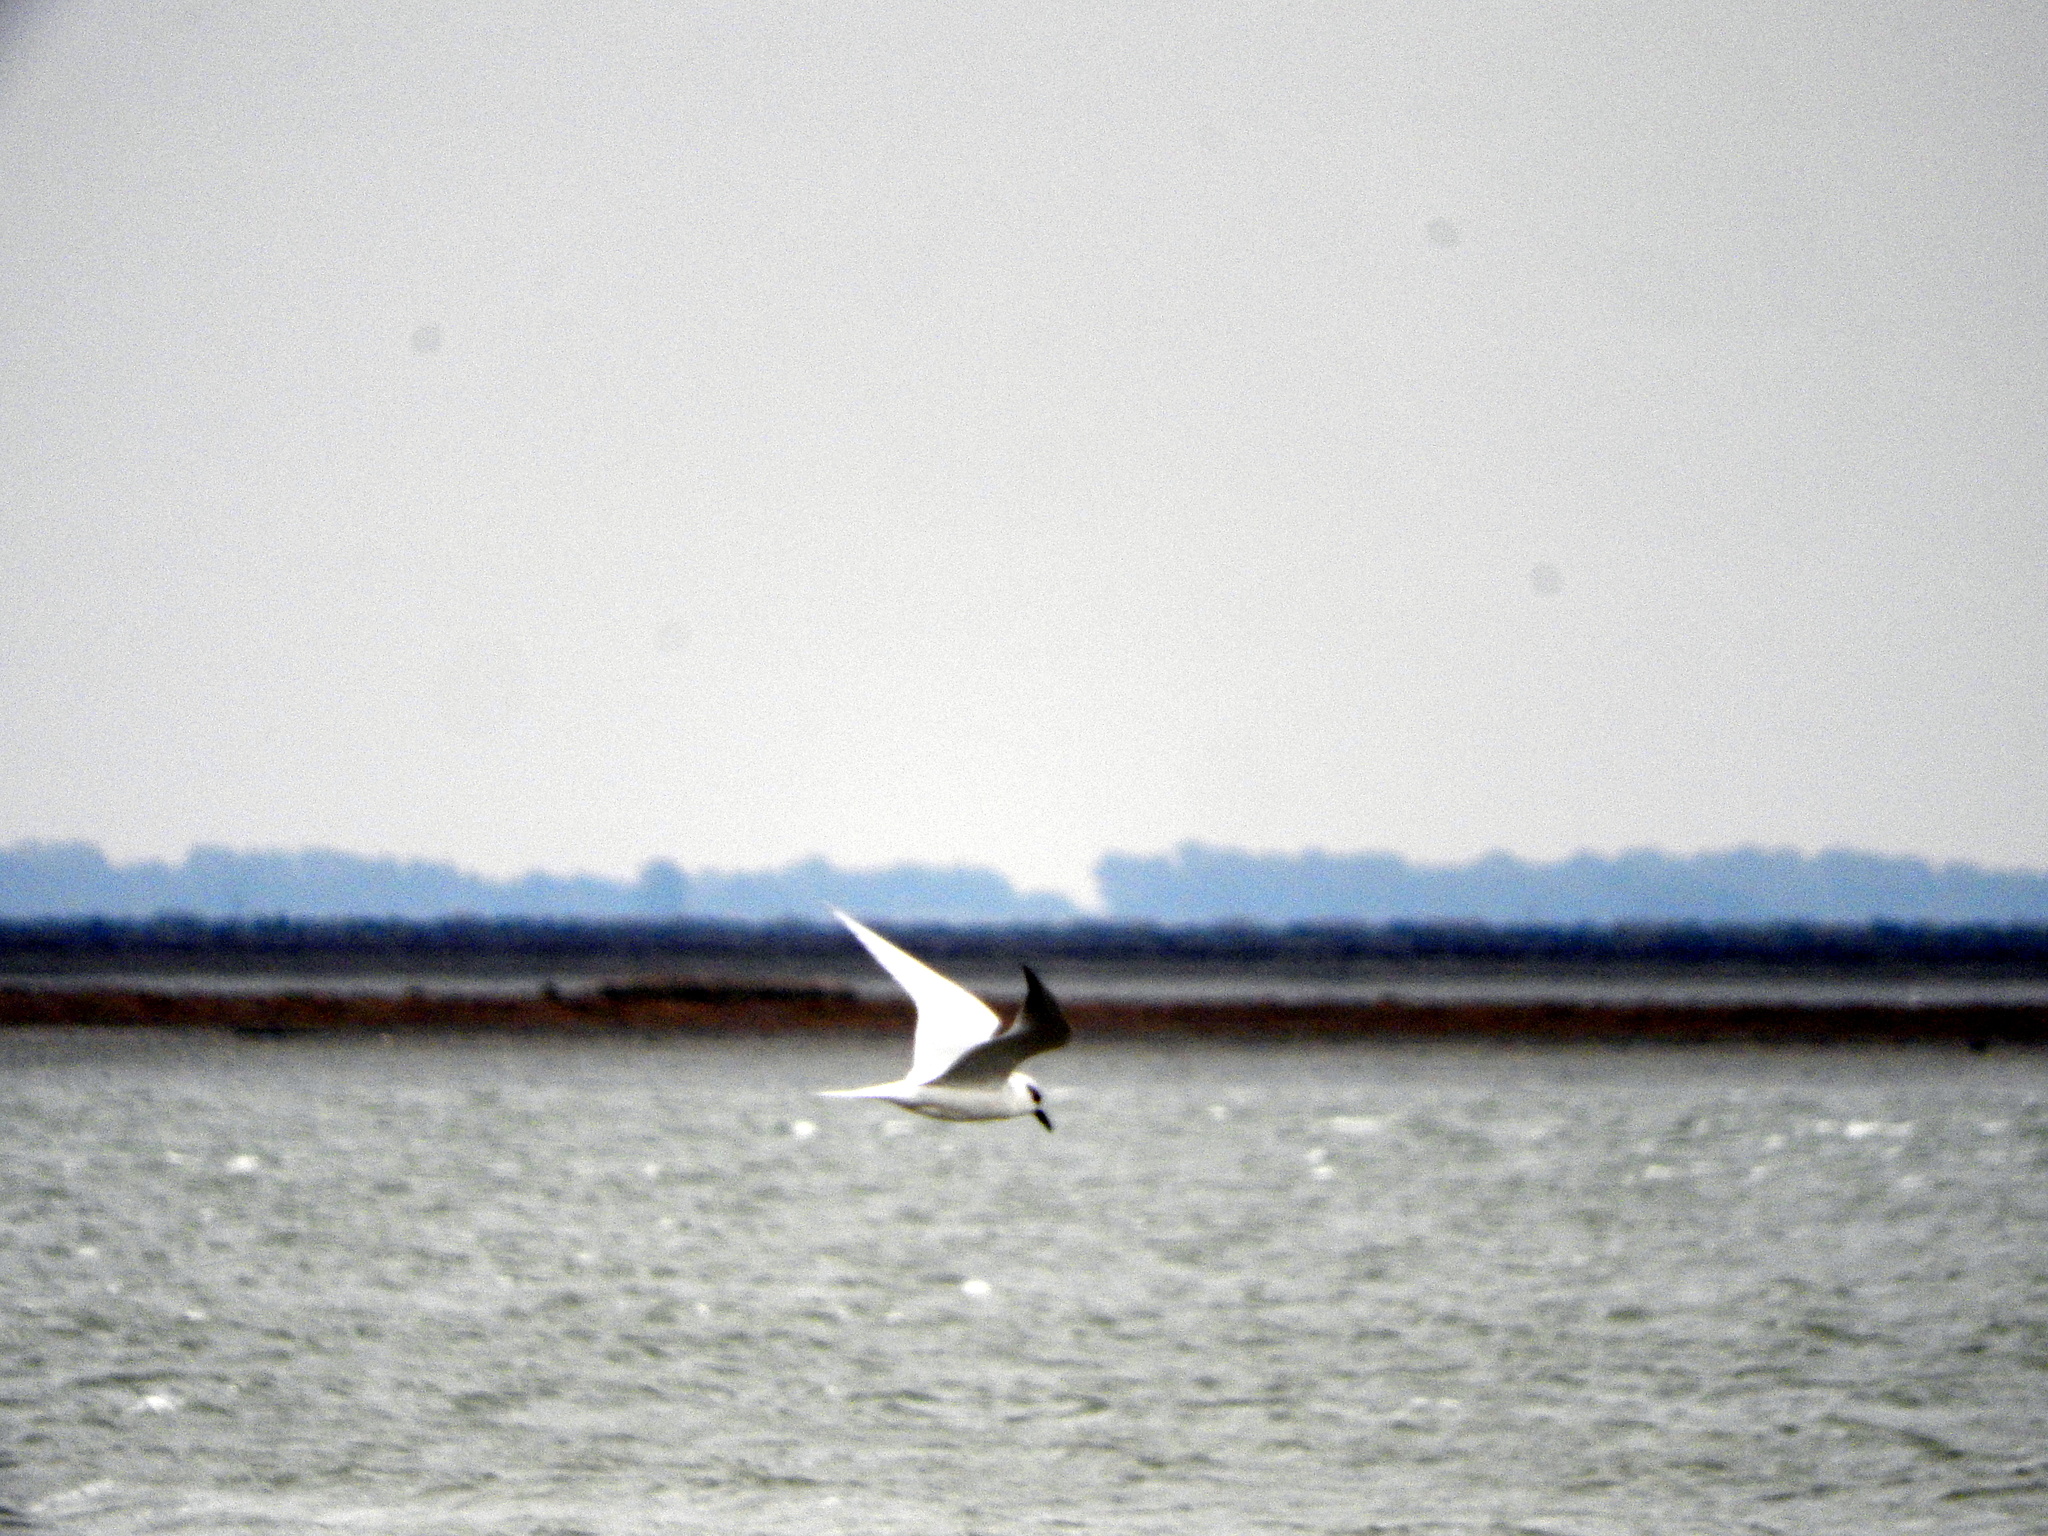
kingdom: Animalia
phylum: Chordata
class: Aves
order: Charadriiformes
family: Laridae
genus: Gelochelidon
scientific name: Gelochelidon nilotica
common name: Gull-billed tern
